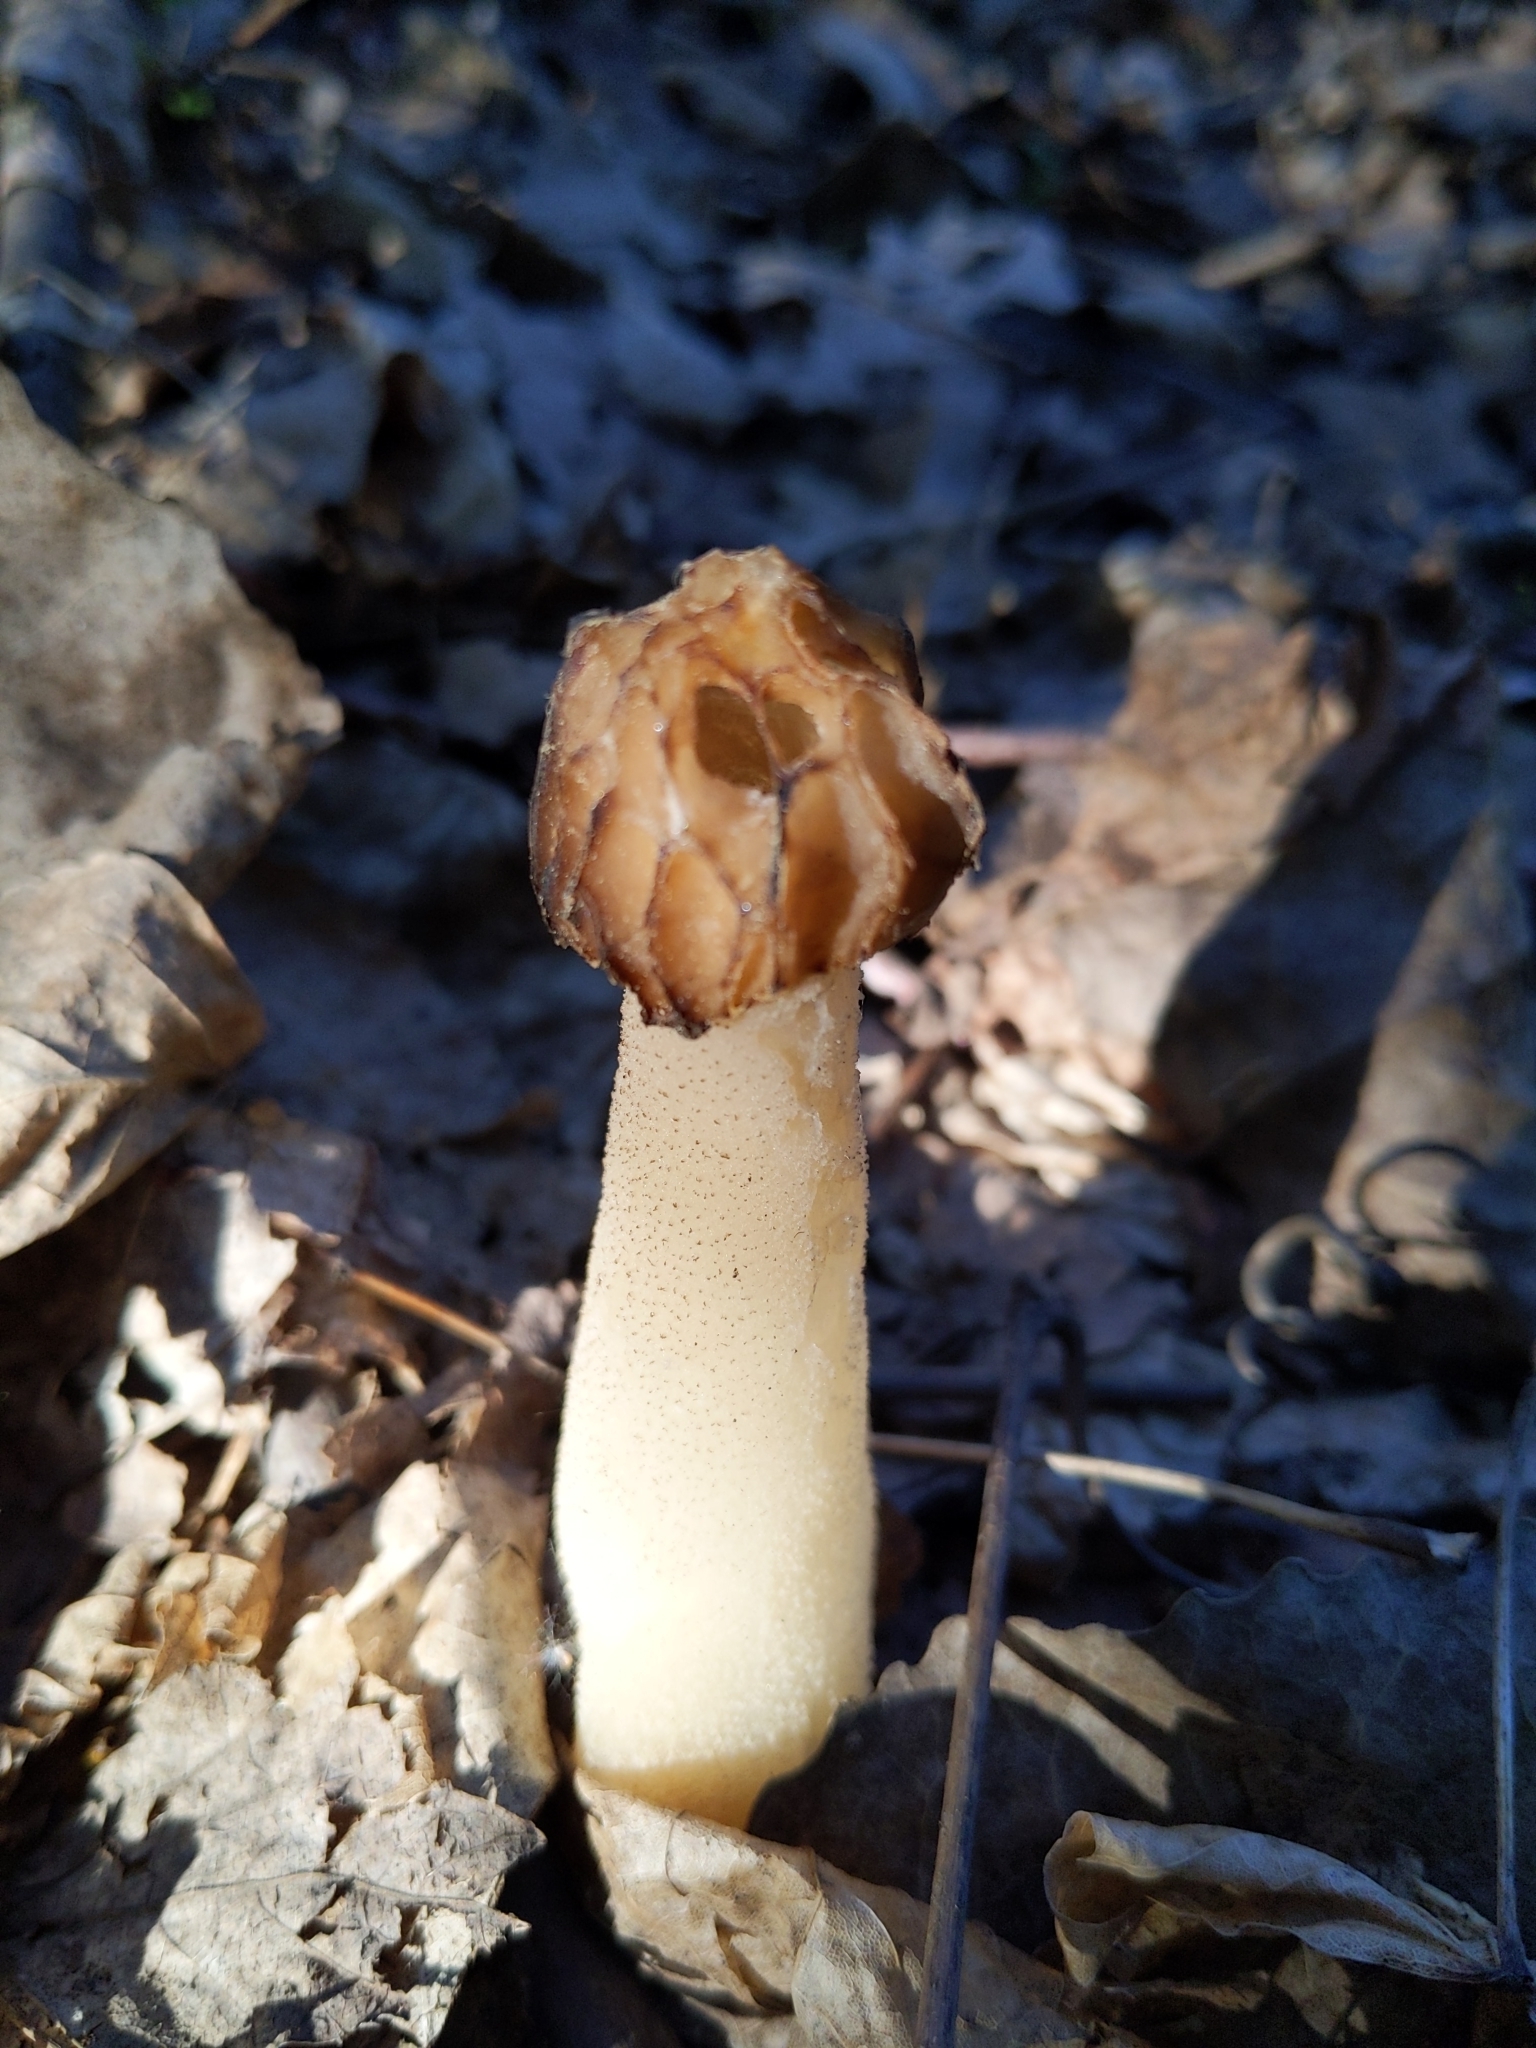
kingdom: Fungi
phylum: Ascomycota
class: Pezizomycetes
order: Pezizales
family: Morchellaceae
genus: Morchella
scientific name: Morchella punctipes
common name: Half-free morel
